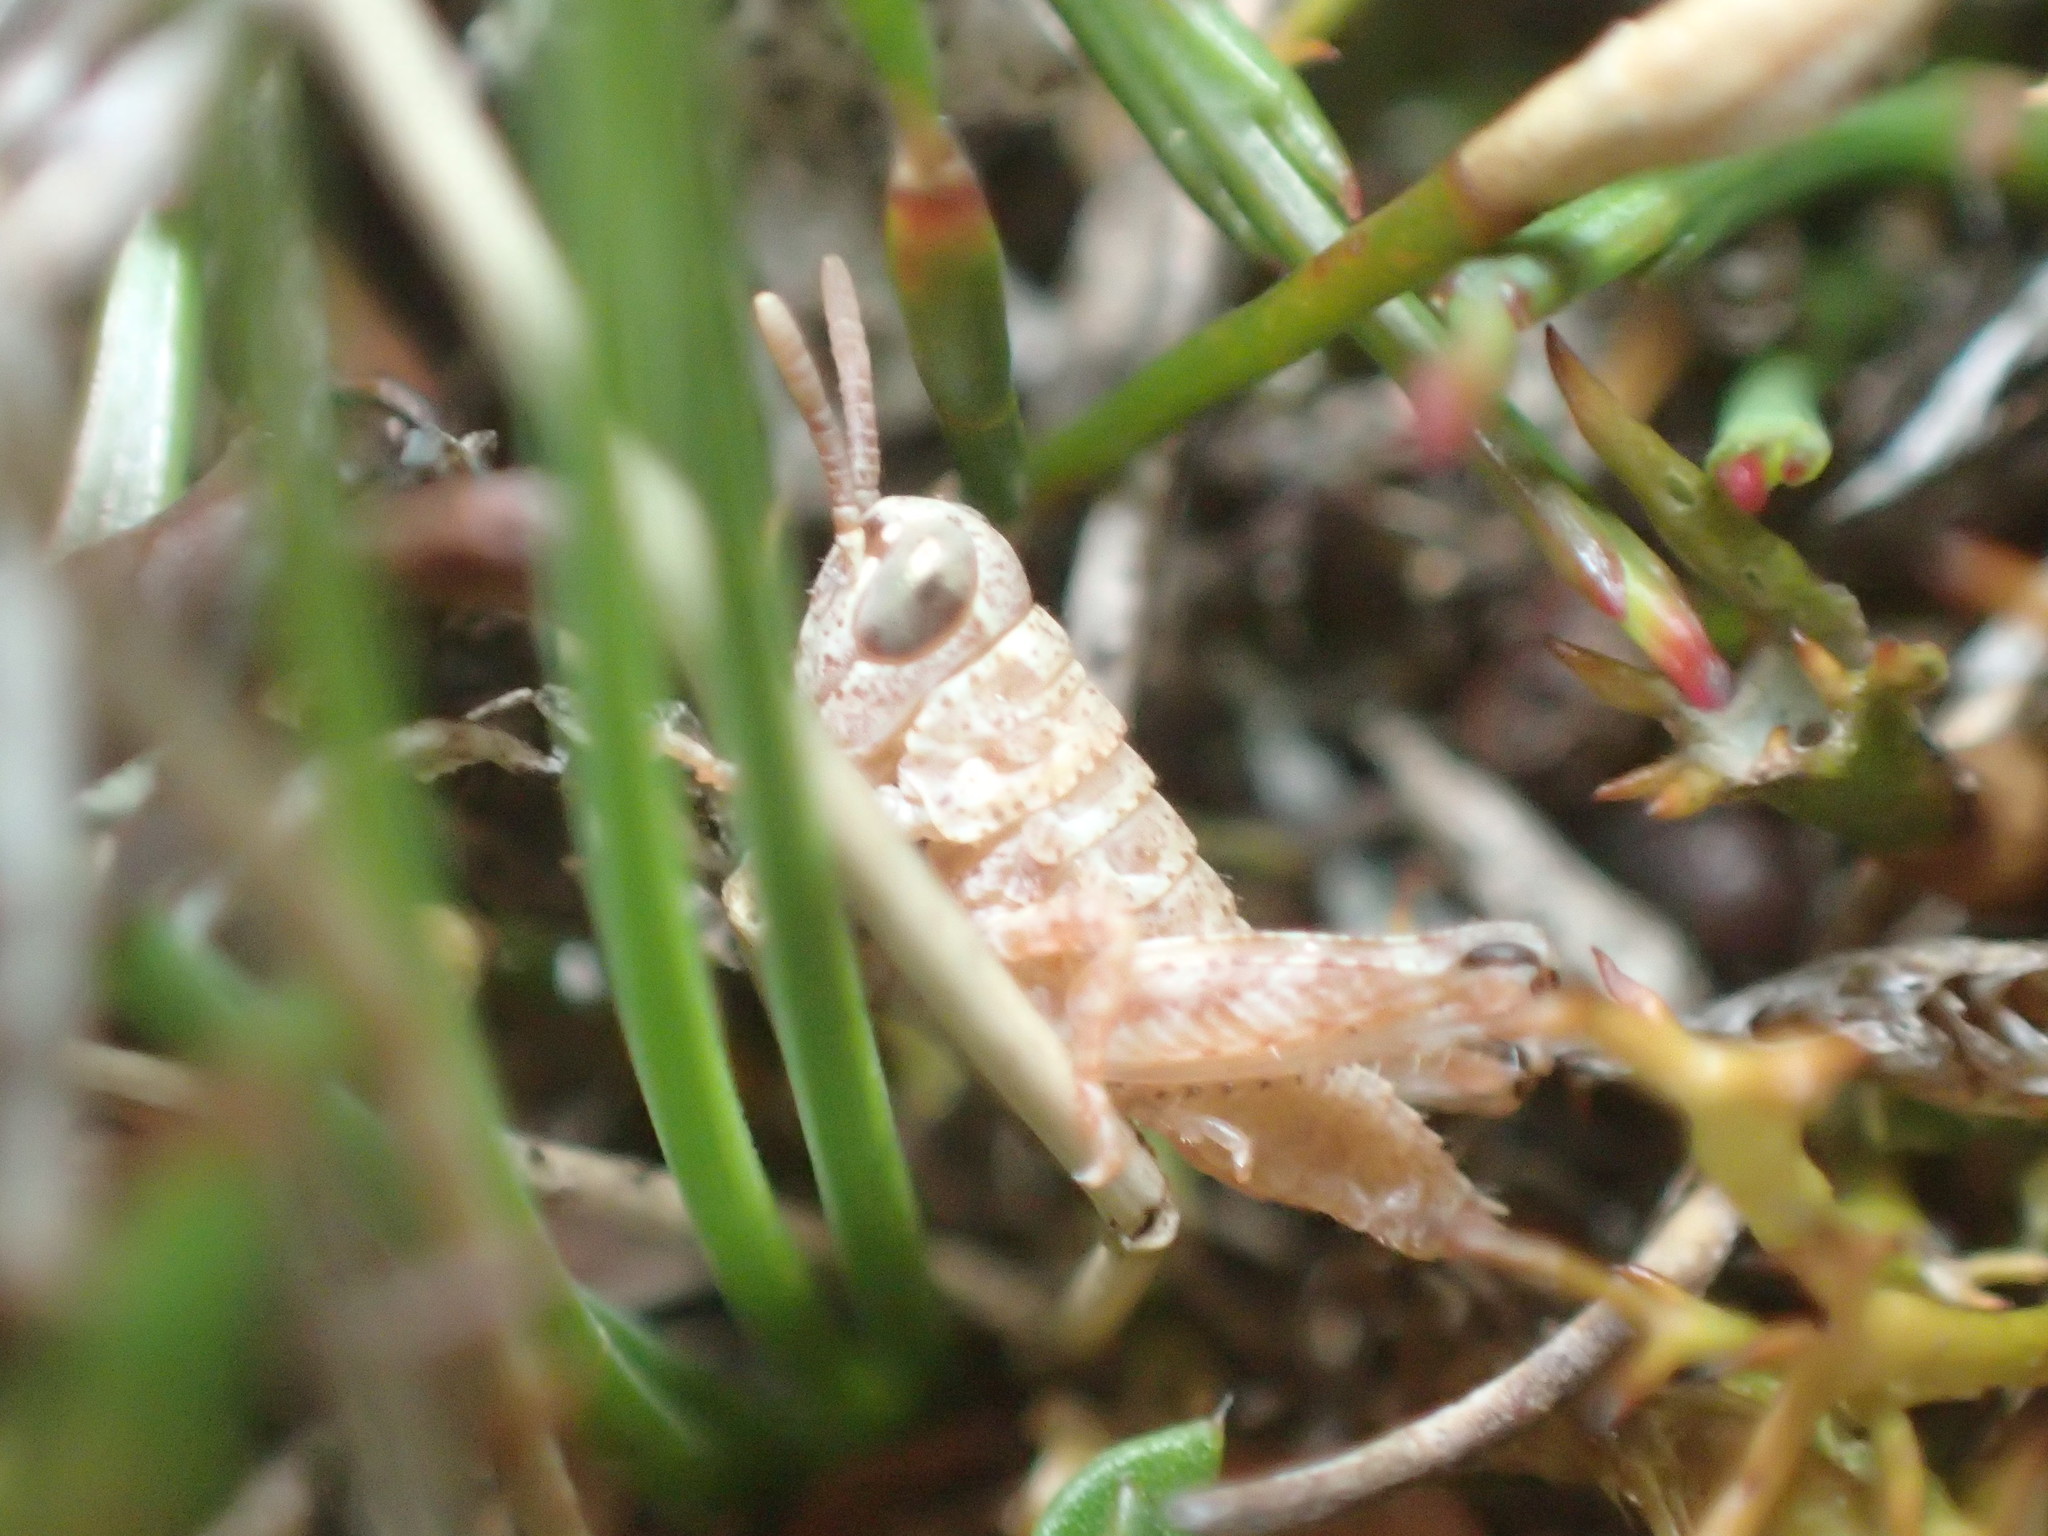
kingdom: Animalia
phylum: Arthropoda
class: Insecta
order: Orthoptera
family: Acrididae
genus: Tasmaniacris
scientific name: Tasmaniacris tasmaniensis
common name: Tasmanian grasshopper
